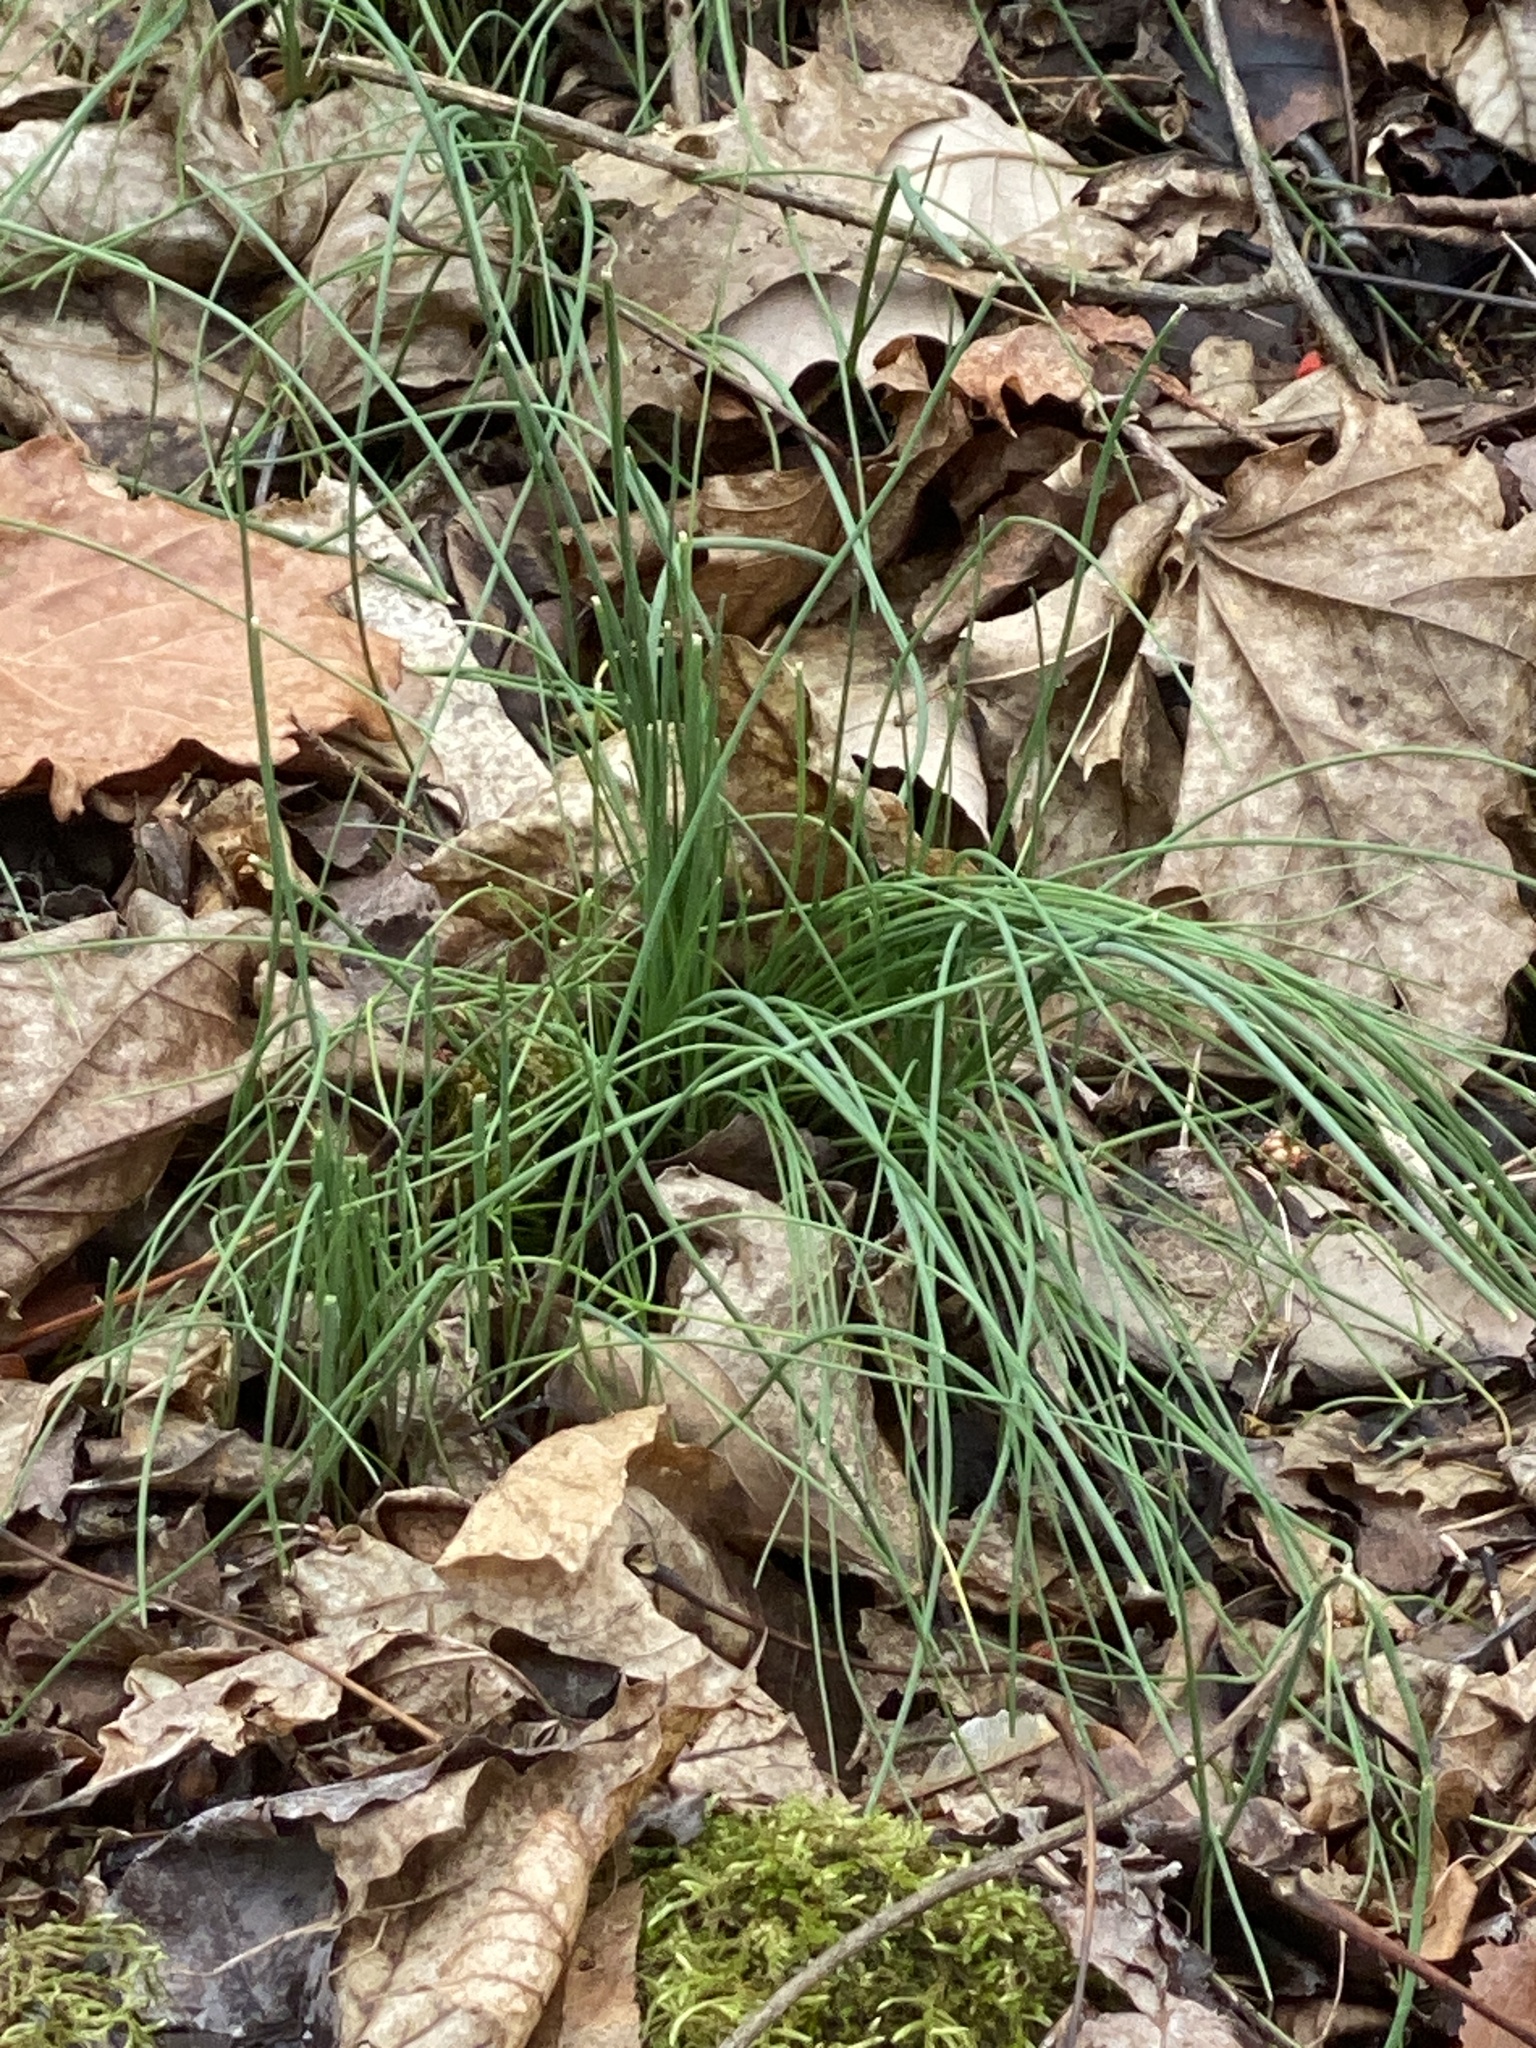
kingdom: Plantae
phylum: Tracheophyta
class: Liliopsida
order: Asparagales
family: Amaryllidaceae
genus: Allium
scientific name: Allium vineale
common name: Crow garlic
